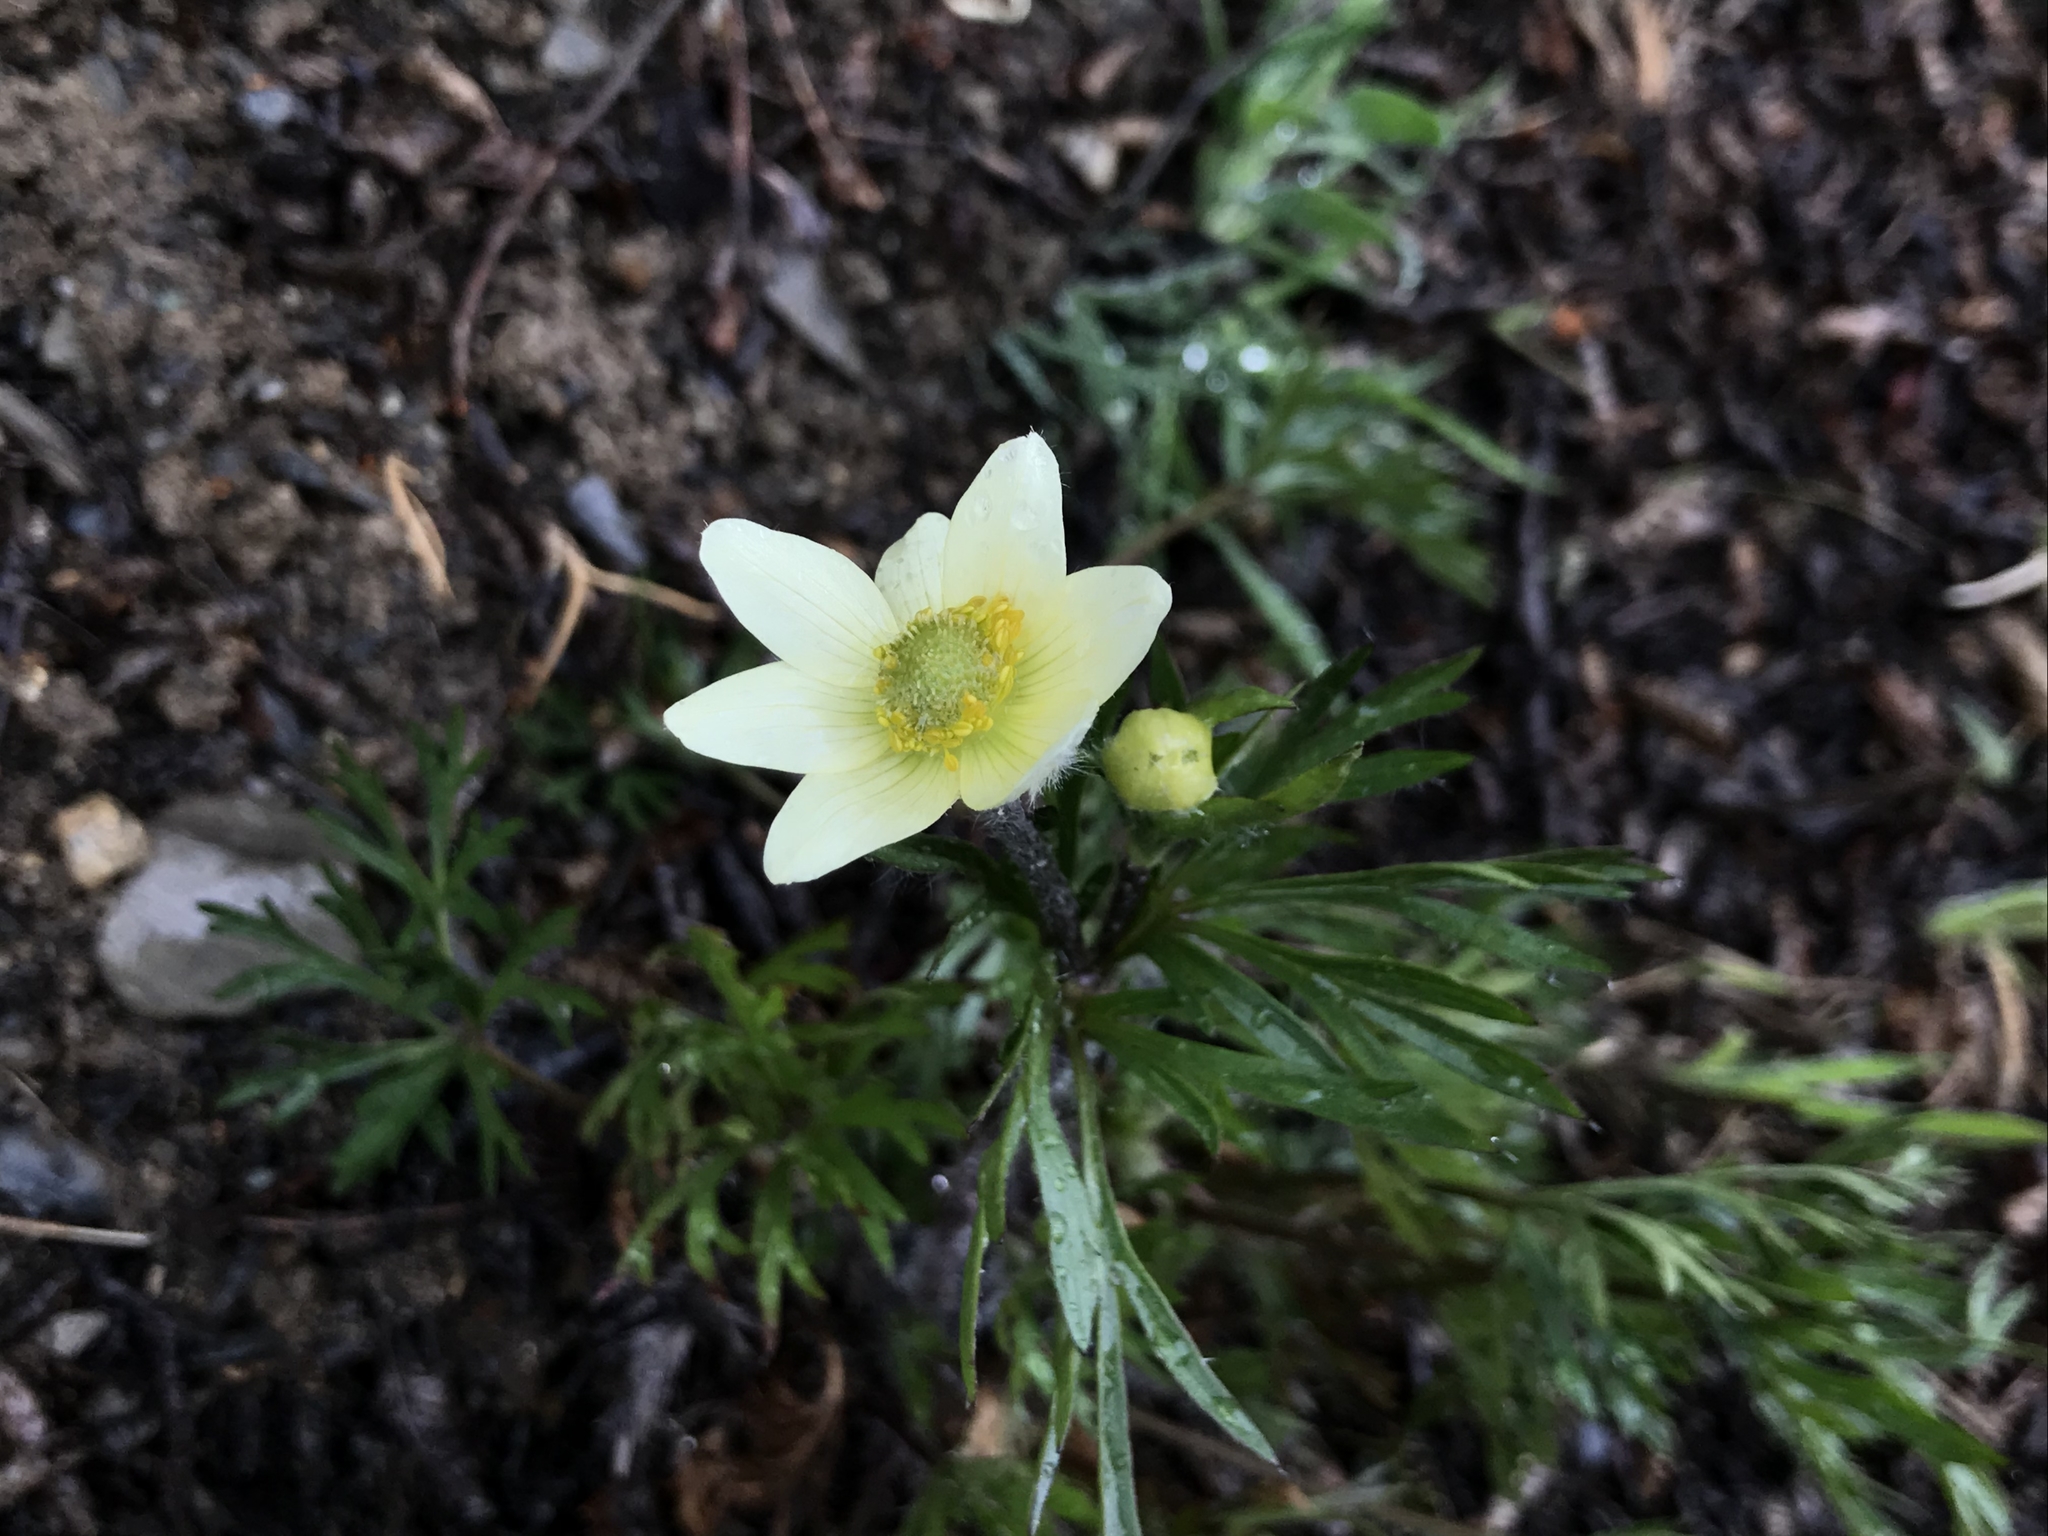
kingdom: Plantae
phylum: Tracheophyta
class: Magnoliopsida
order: Ranunculales
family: Ranunculaceae
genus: Anemone
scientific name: Anemone multifida
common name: Bird's-foot anemone
